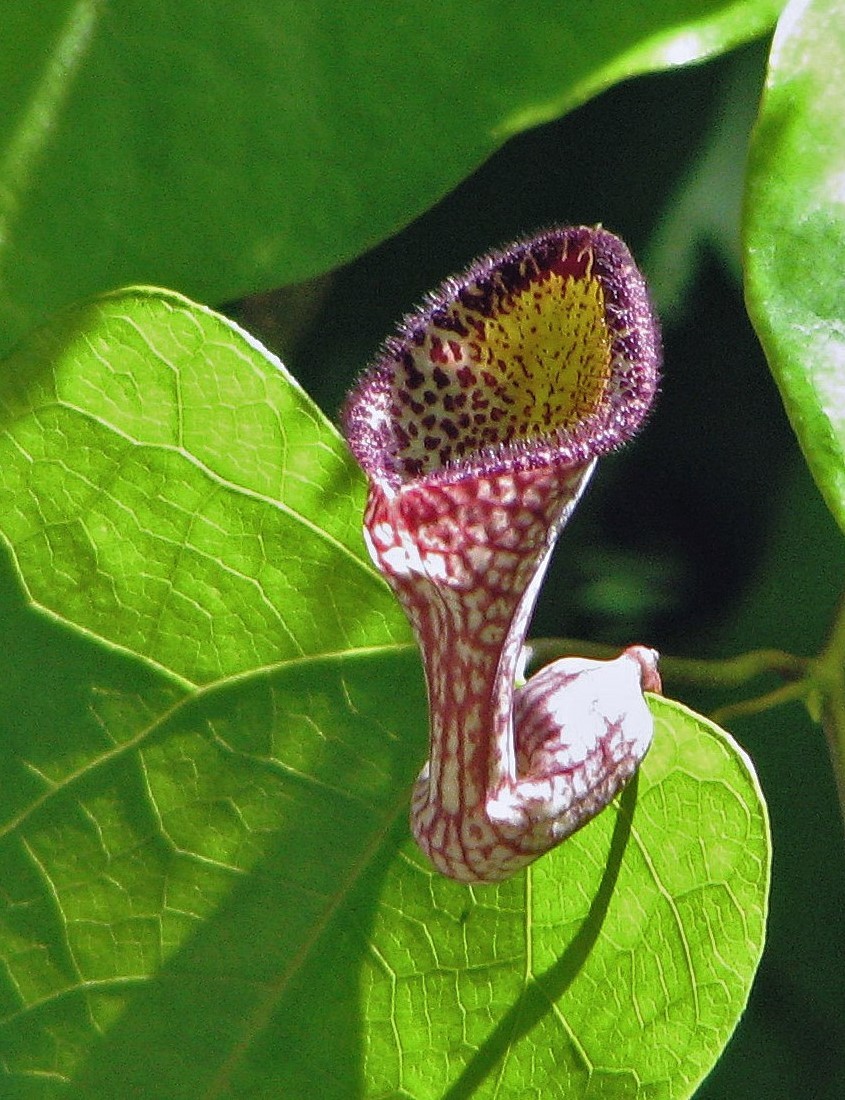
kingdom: Plantae
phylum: Tracheophyta
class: Magnoliopsida
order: Piperales
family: Aristolochiaceae
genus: Aristolochia
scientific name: Aristolochia triangularis
